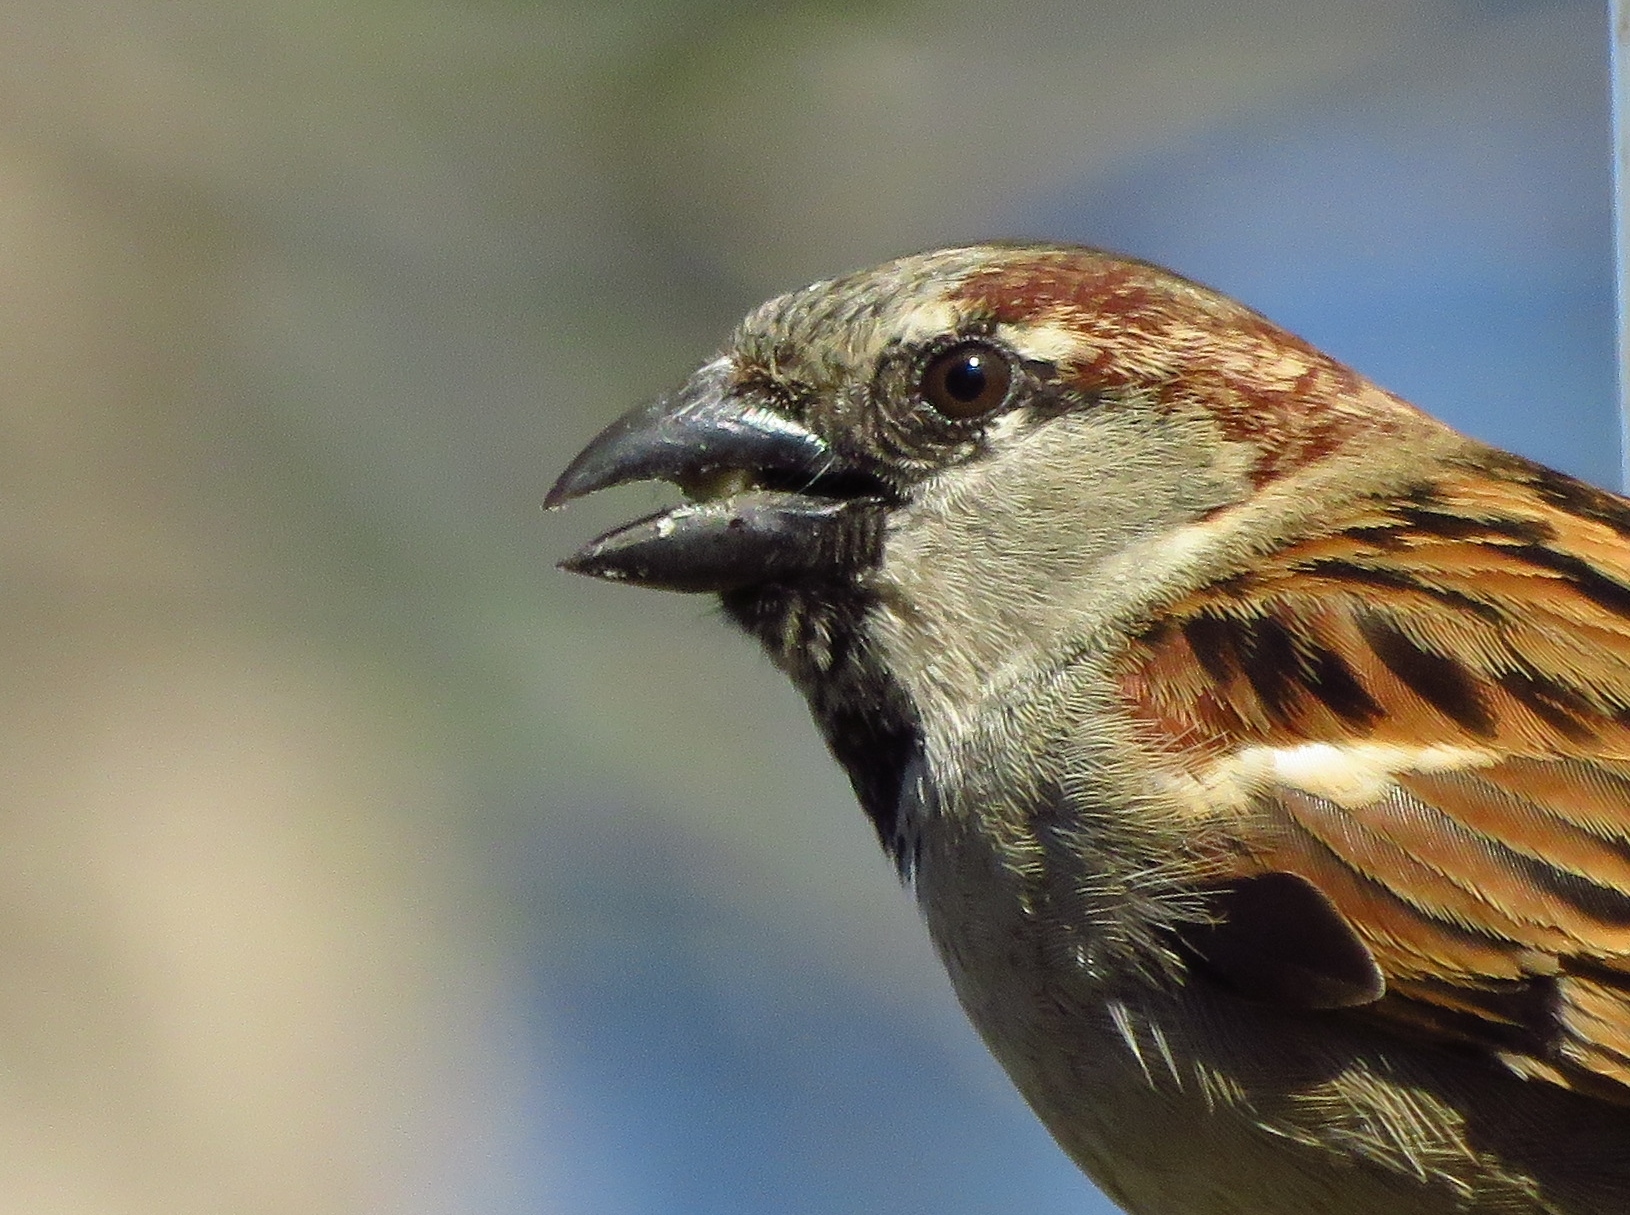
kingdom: Animalia
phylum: Chordata
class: Aves
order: Passeriformes
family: Passeridae
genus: Passer
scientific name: Passer domesticus
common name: House sparrow
